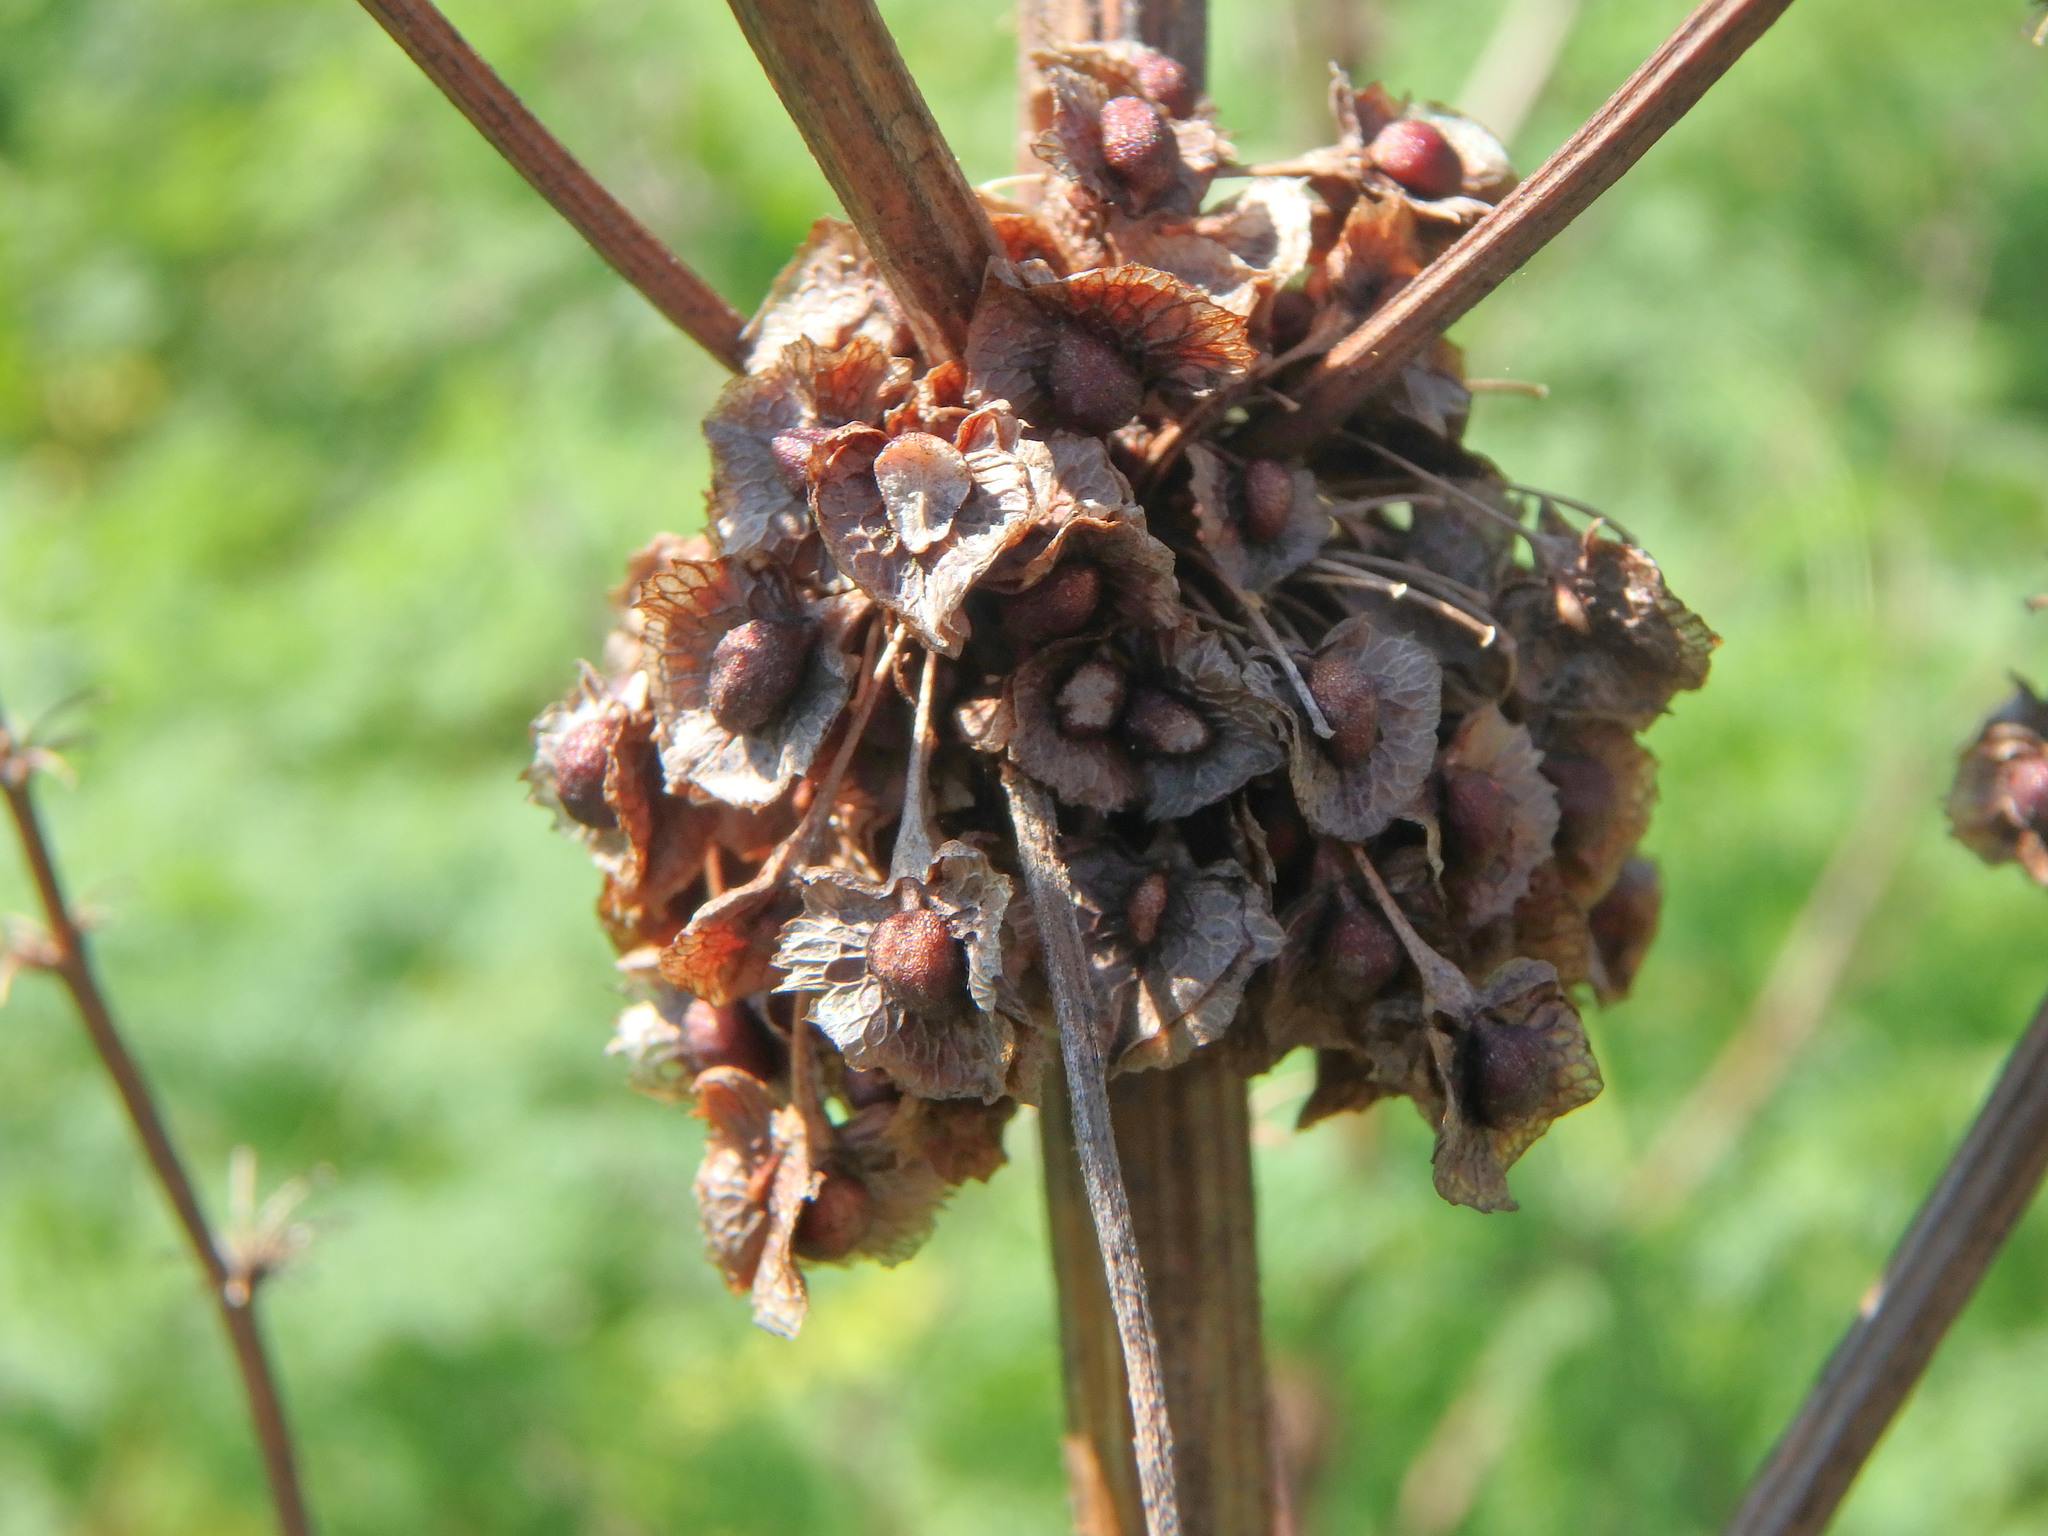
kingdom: Plantae
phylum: Tracheophyta
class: Magnoliopsida
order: Caryophyllales
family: Polygonaceae
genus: Rumex
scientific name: Rumex cristatus
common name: Greek dock
